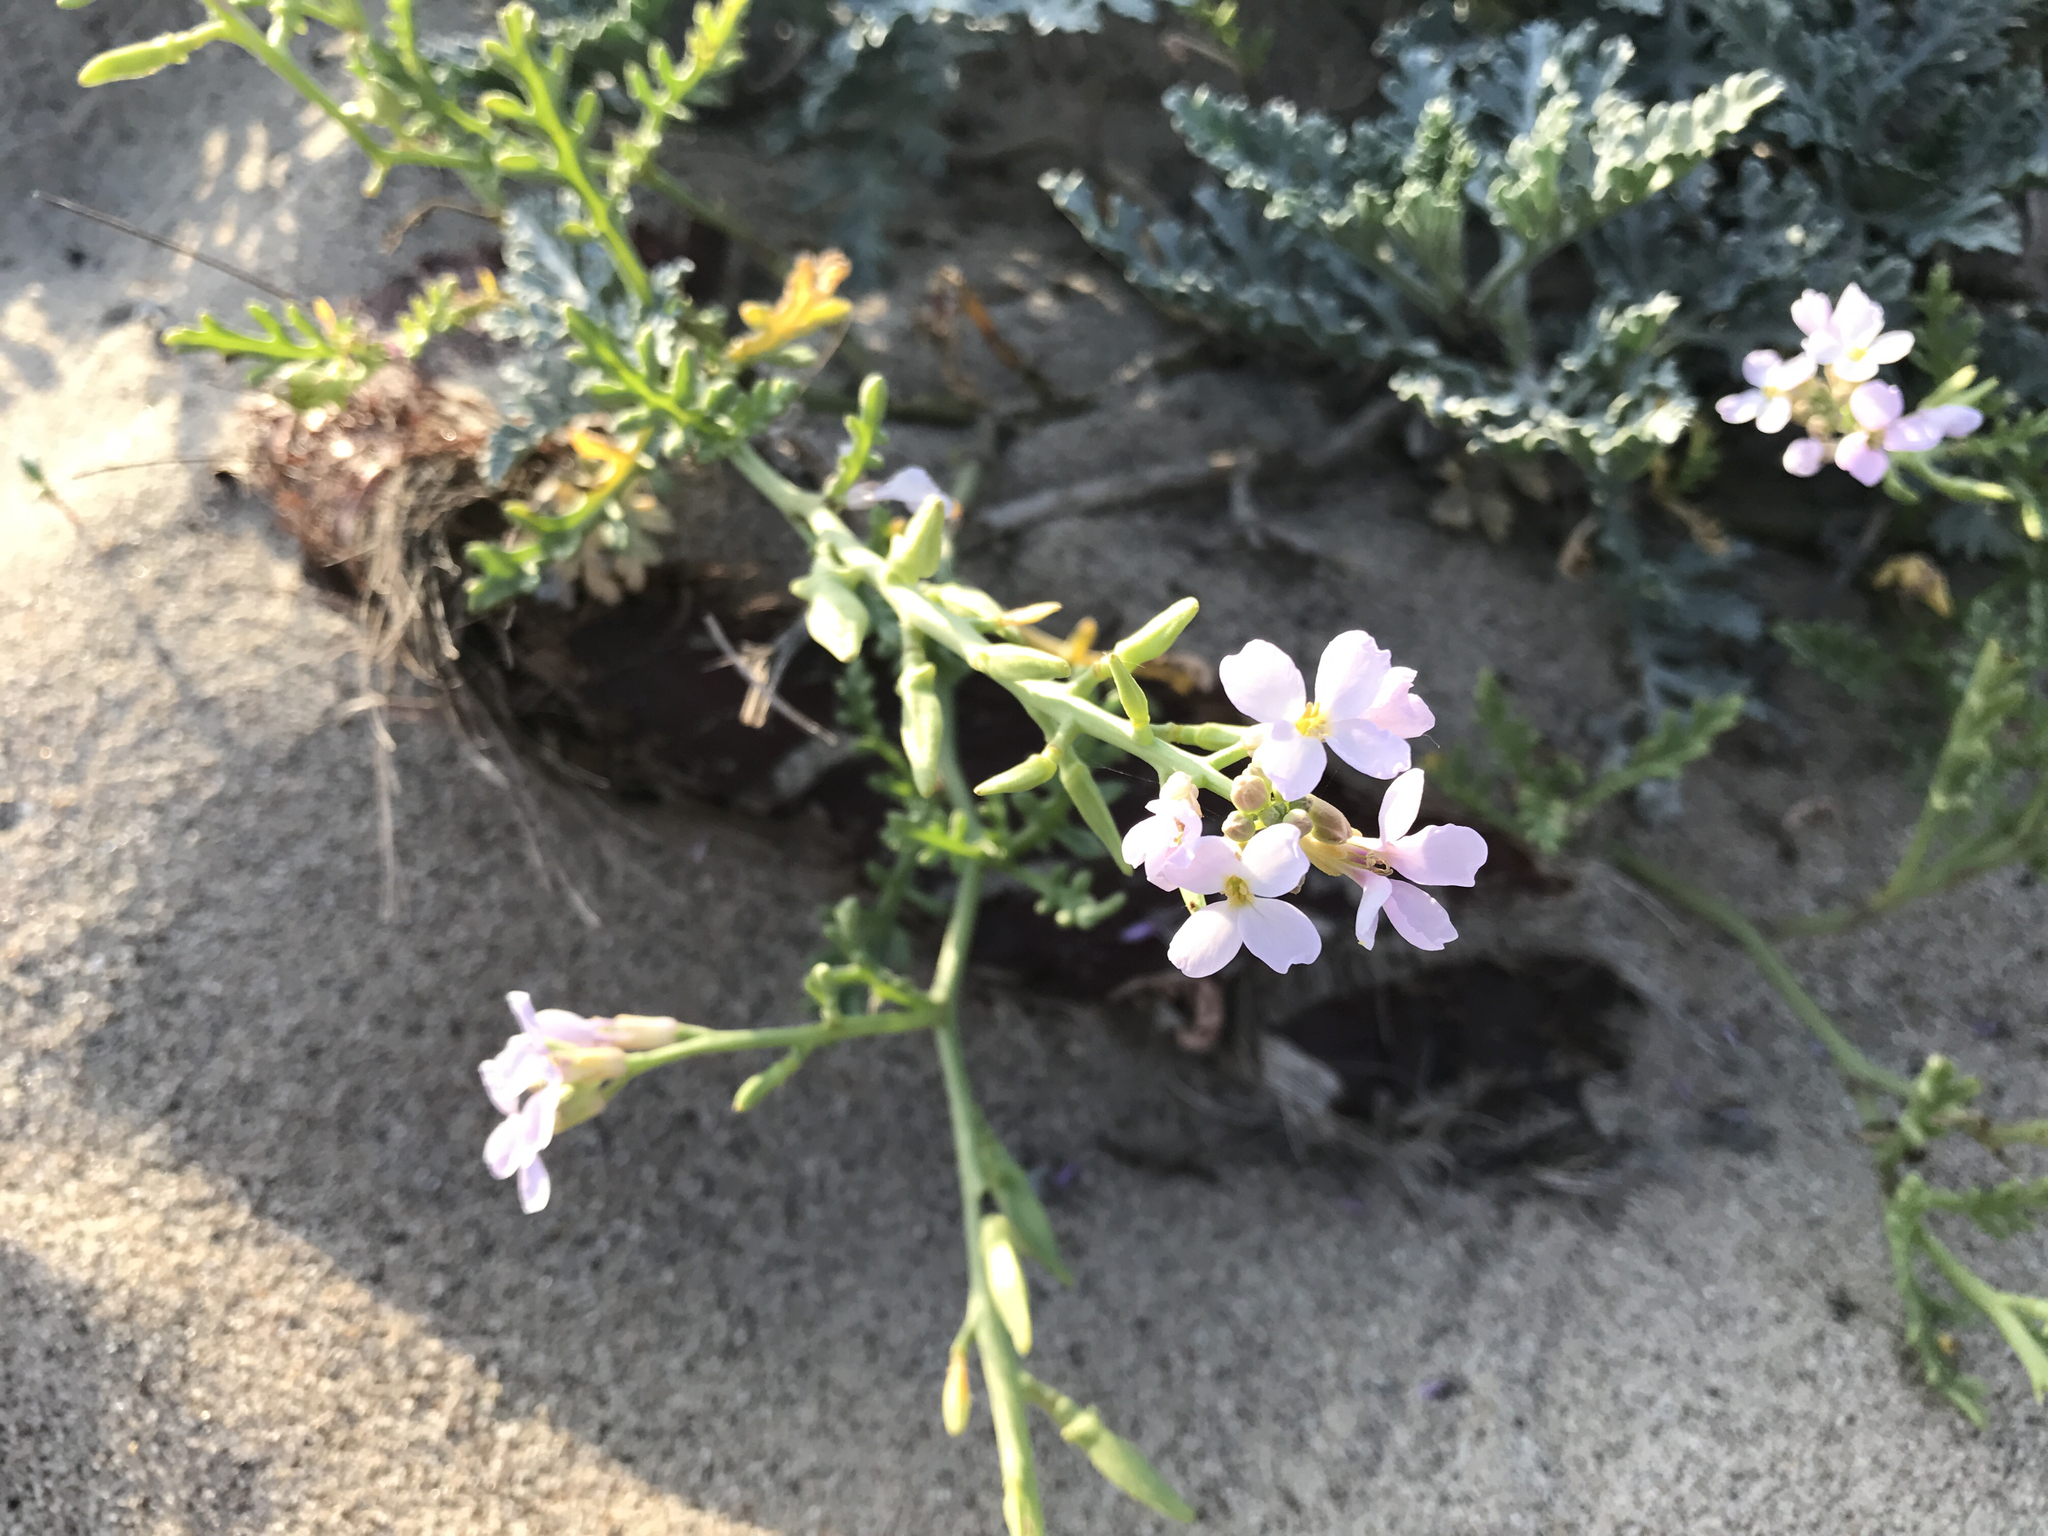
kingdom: Plantae
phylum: Tracheophyta
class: Magnoliopsida
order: Brassicales
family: Brassicaceae
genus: Cakile
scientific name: Cakile maritima
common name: Sea rocket
